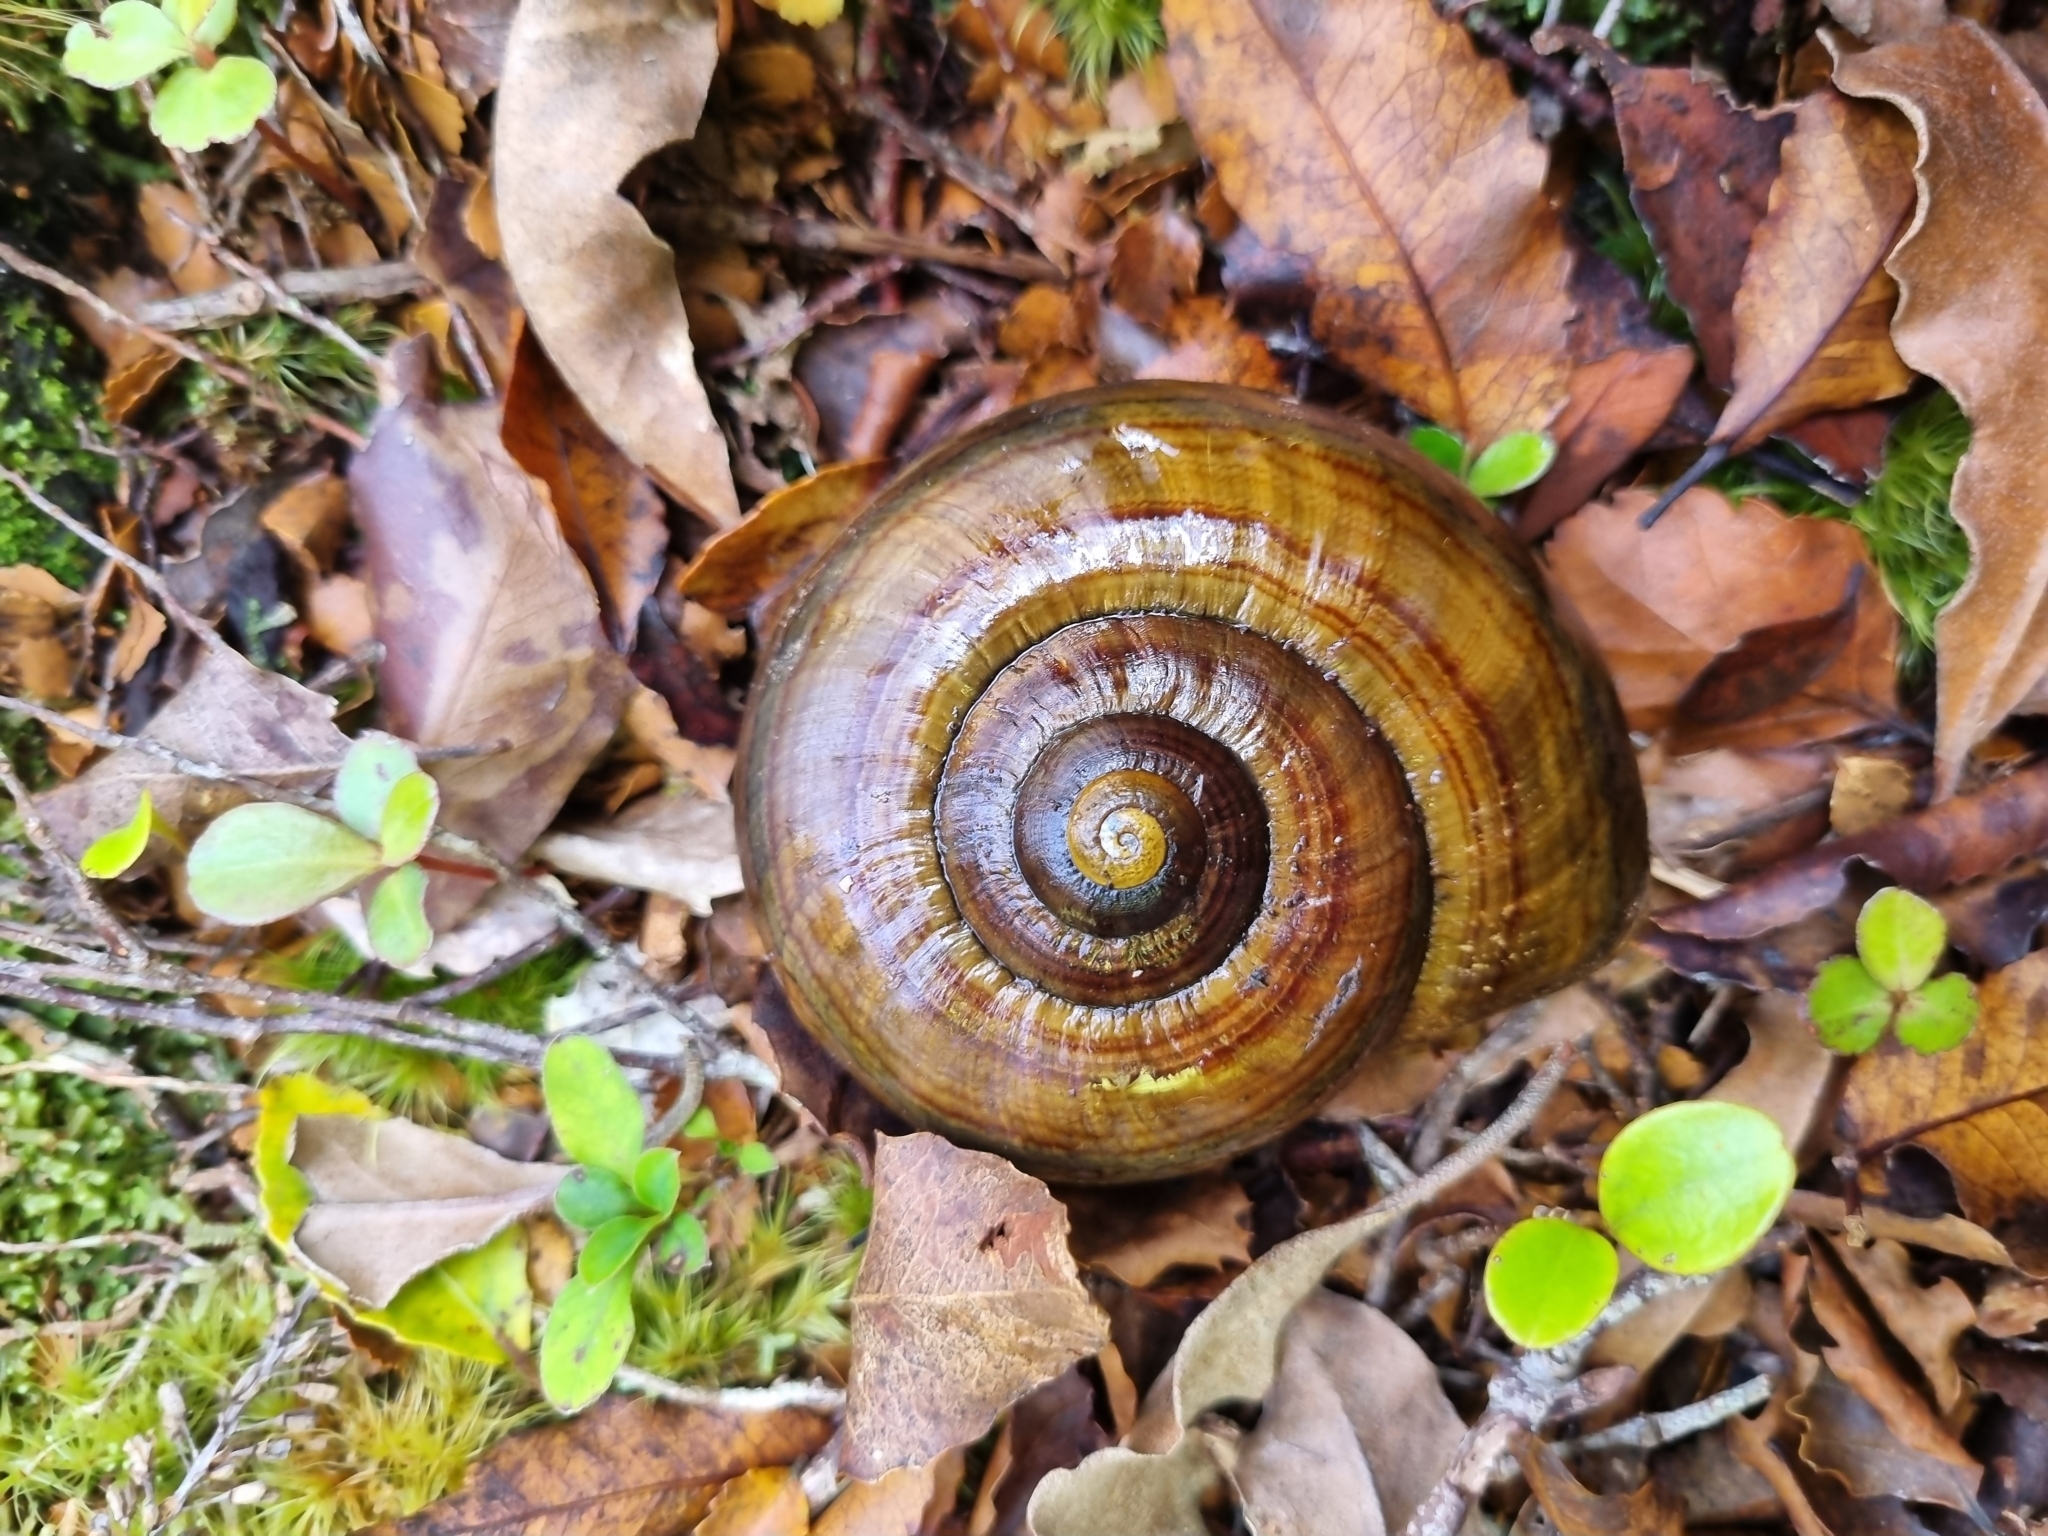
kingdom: Animalia
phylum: Mollusca
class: Gastropoda
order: Stylommatophora
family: Rhytididae
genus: Powelliphanta
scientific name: Powelliphanta hochstetteri
